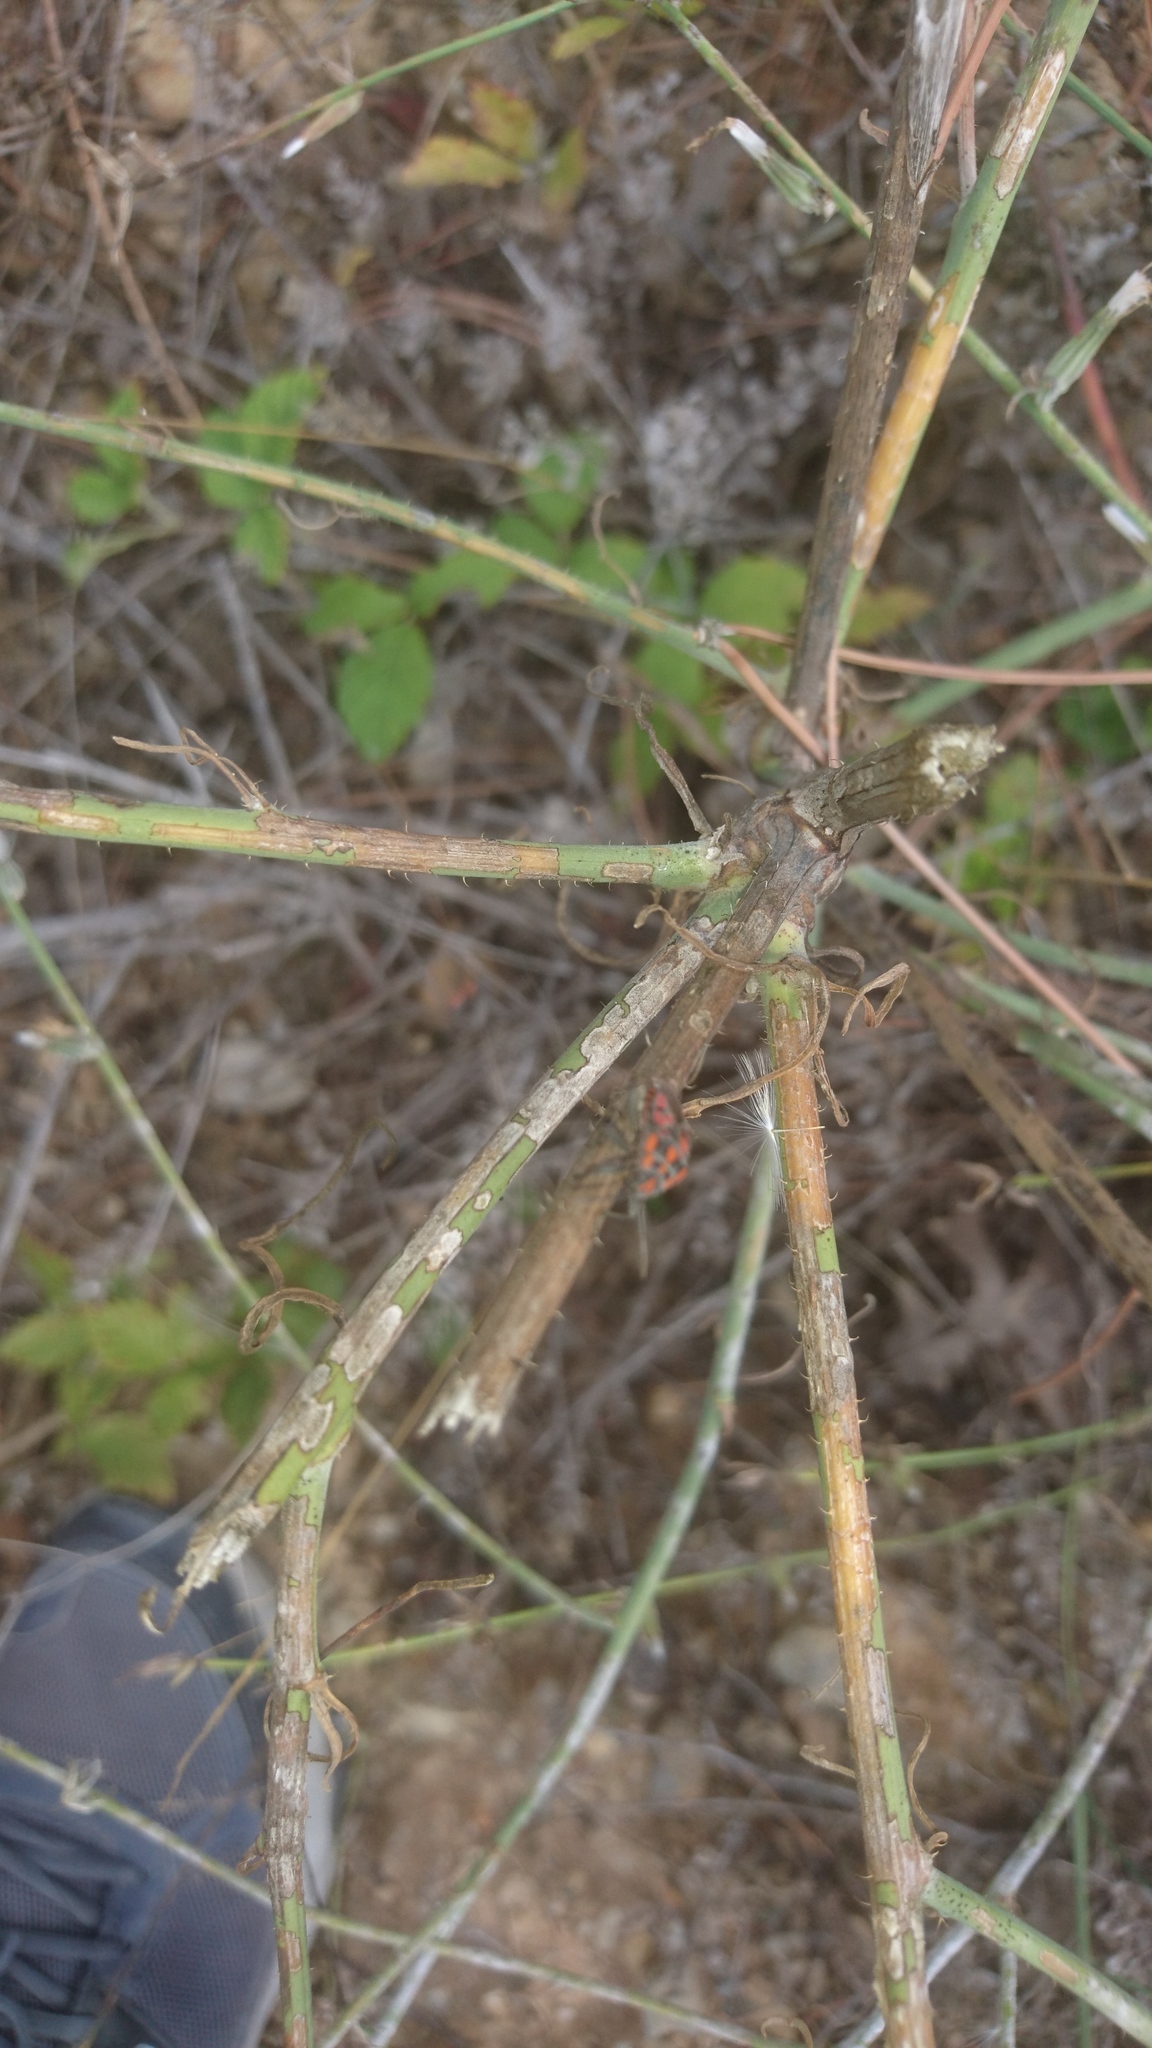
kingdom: Animalia
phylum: Arthropoda
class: Insecta
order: Hemiptera
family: Lygaeidae
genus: Spilostethus
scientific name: Spilostethus saxatilis
